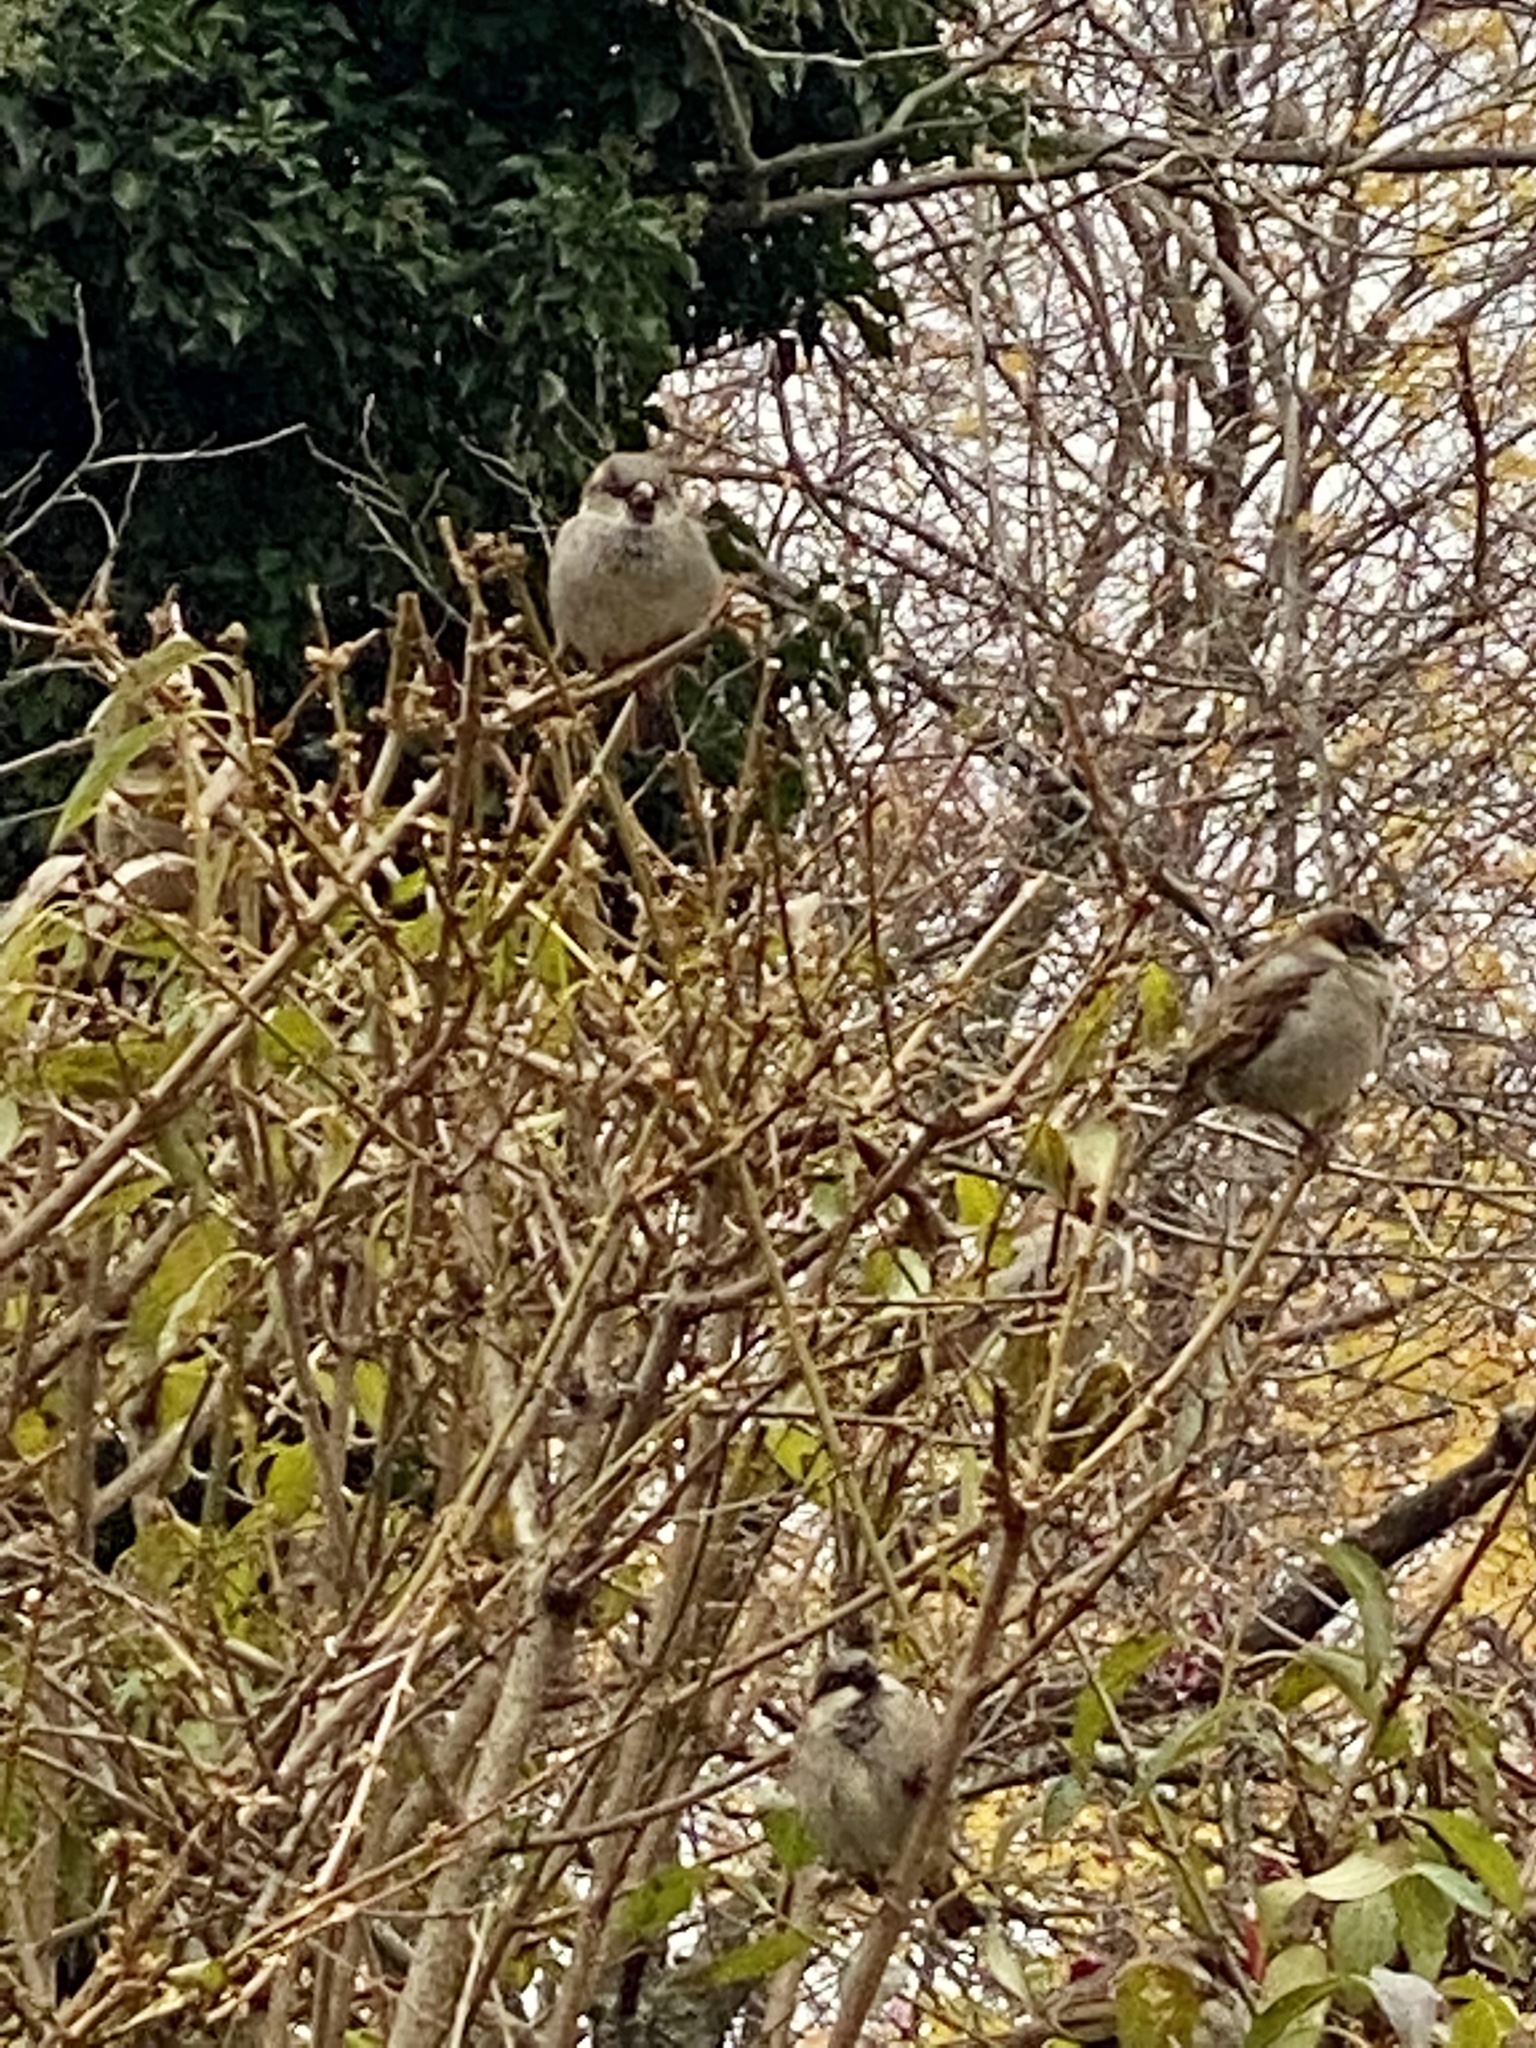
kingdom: Animalia
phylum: Chordata
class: Aves
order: Passeriformes
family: Passeridae
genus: Passer
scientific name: Passer domesticus
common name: House sparrow
